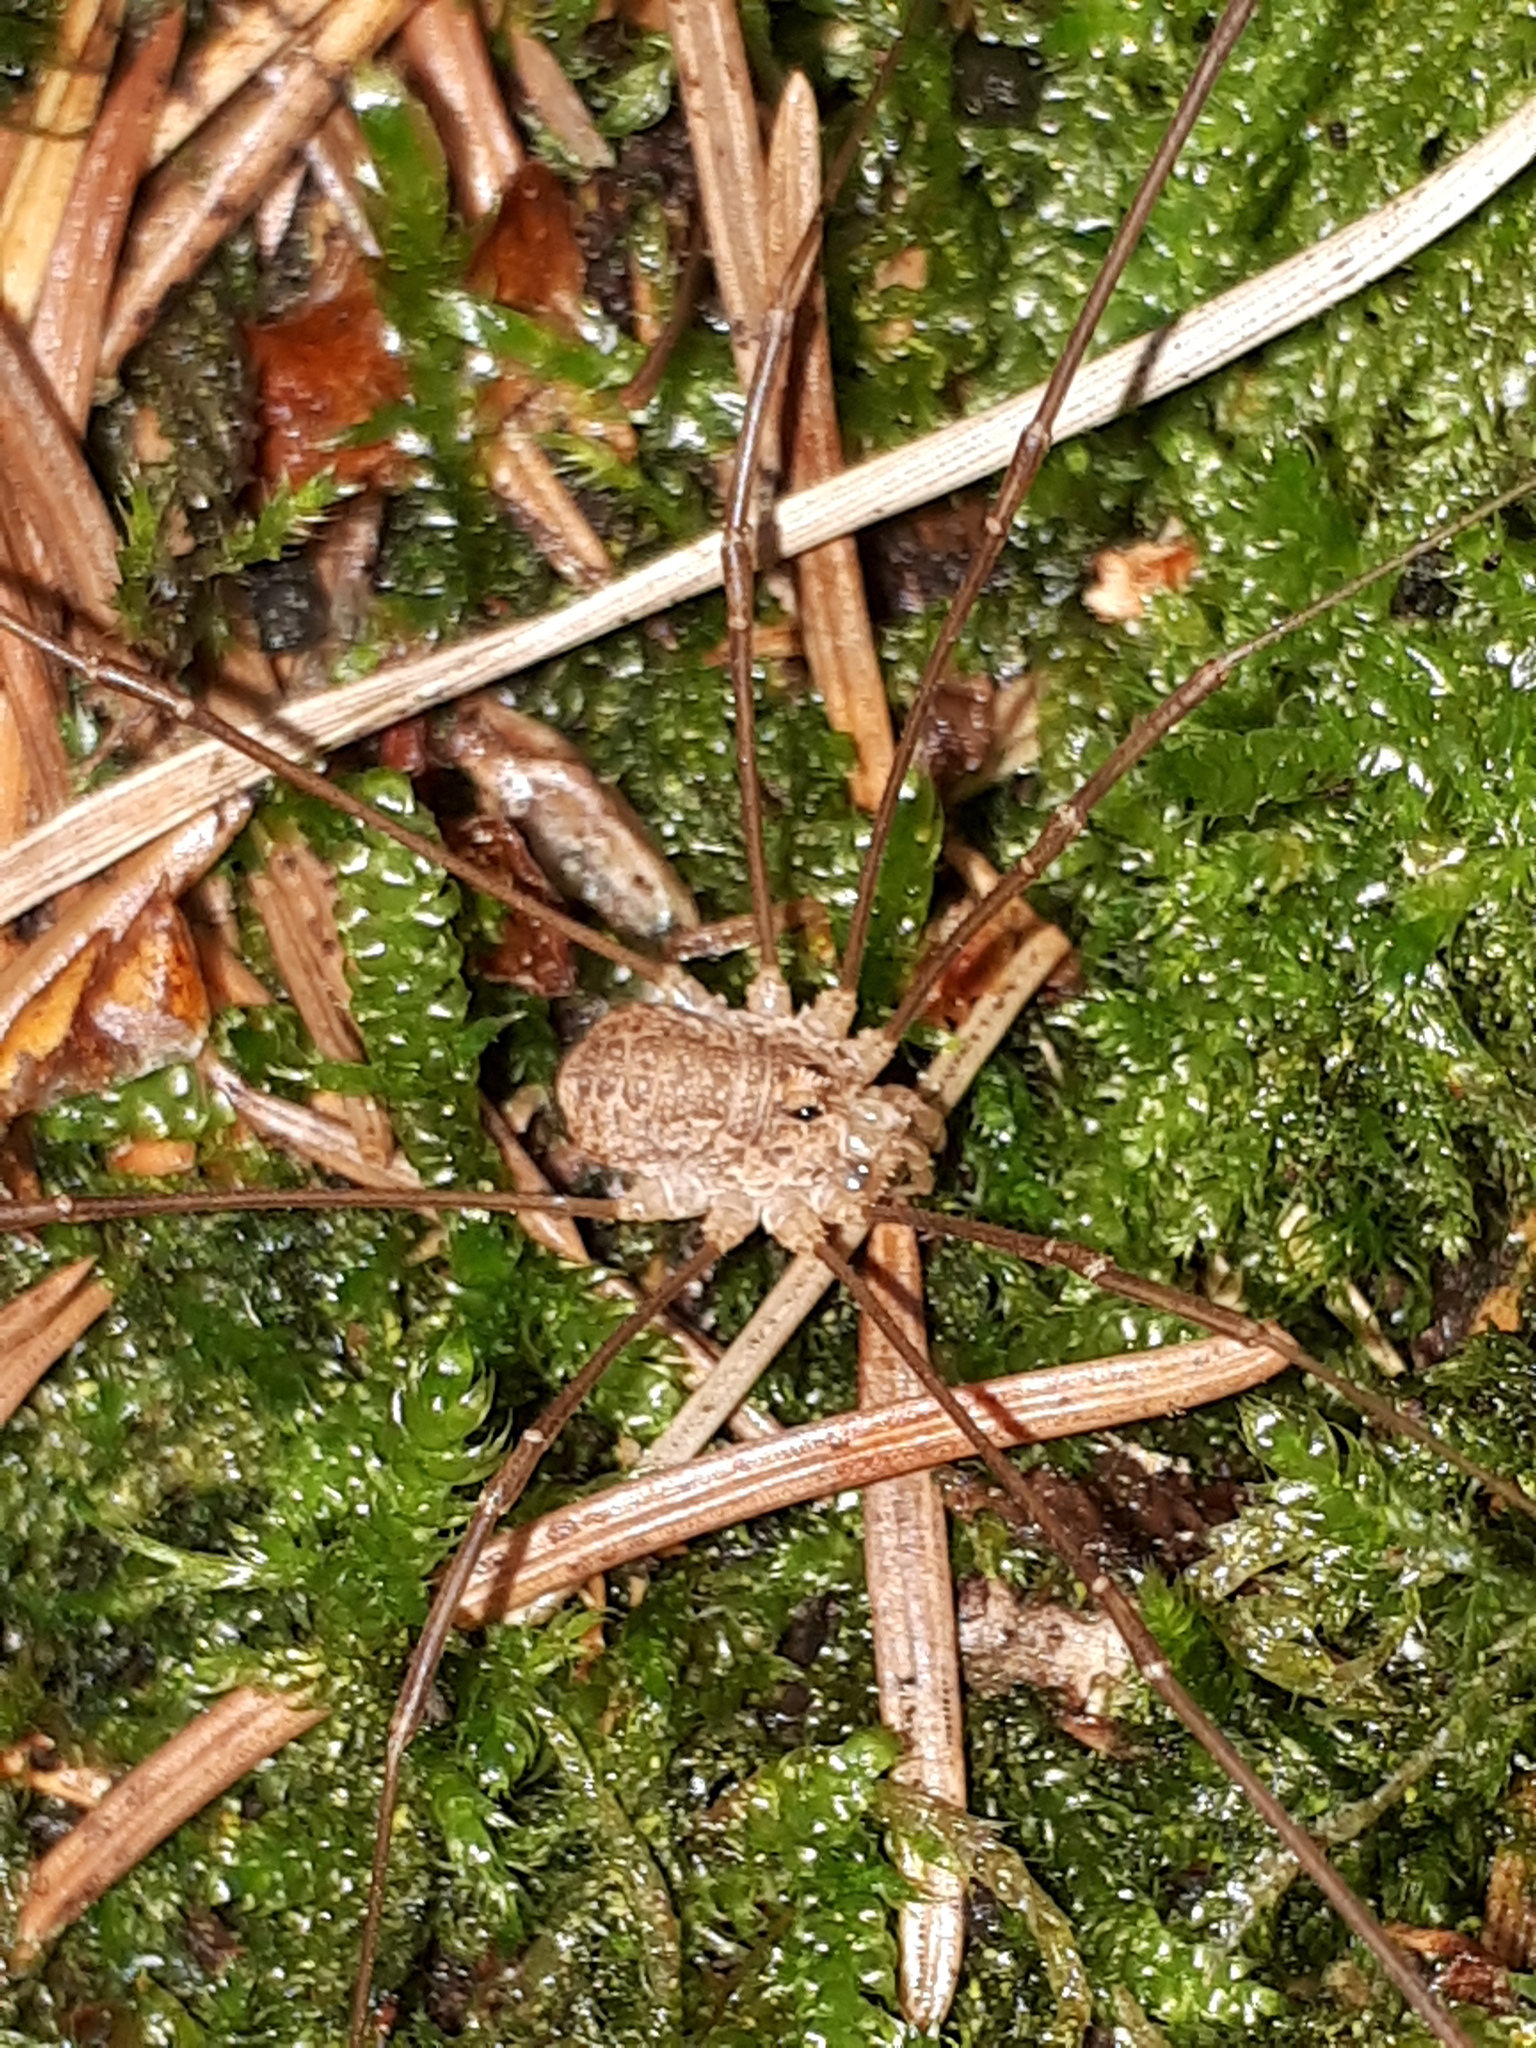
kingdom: Animalia
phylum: Arthropoda
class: Arachnida
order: Opiliones
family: Phalangiidae
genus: Rilaena
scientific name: Rilaena triangularis
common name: Spring harvestman
